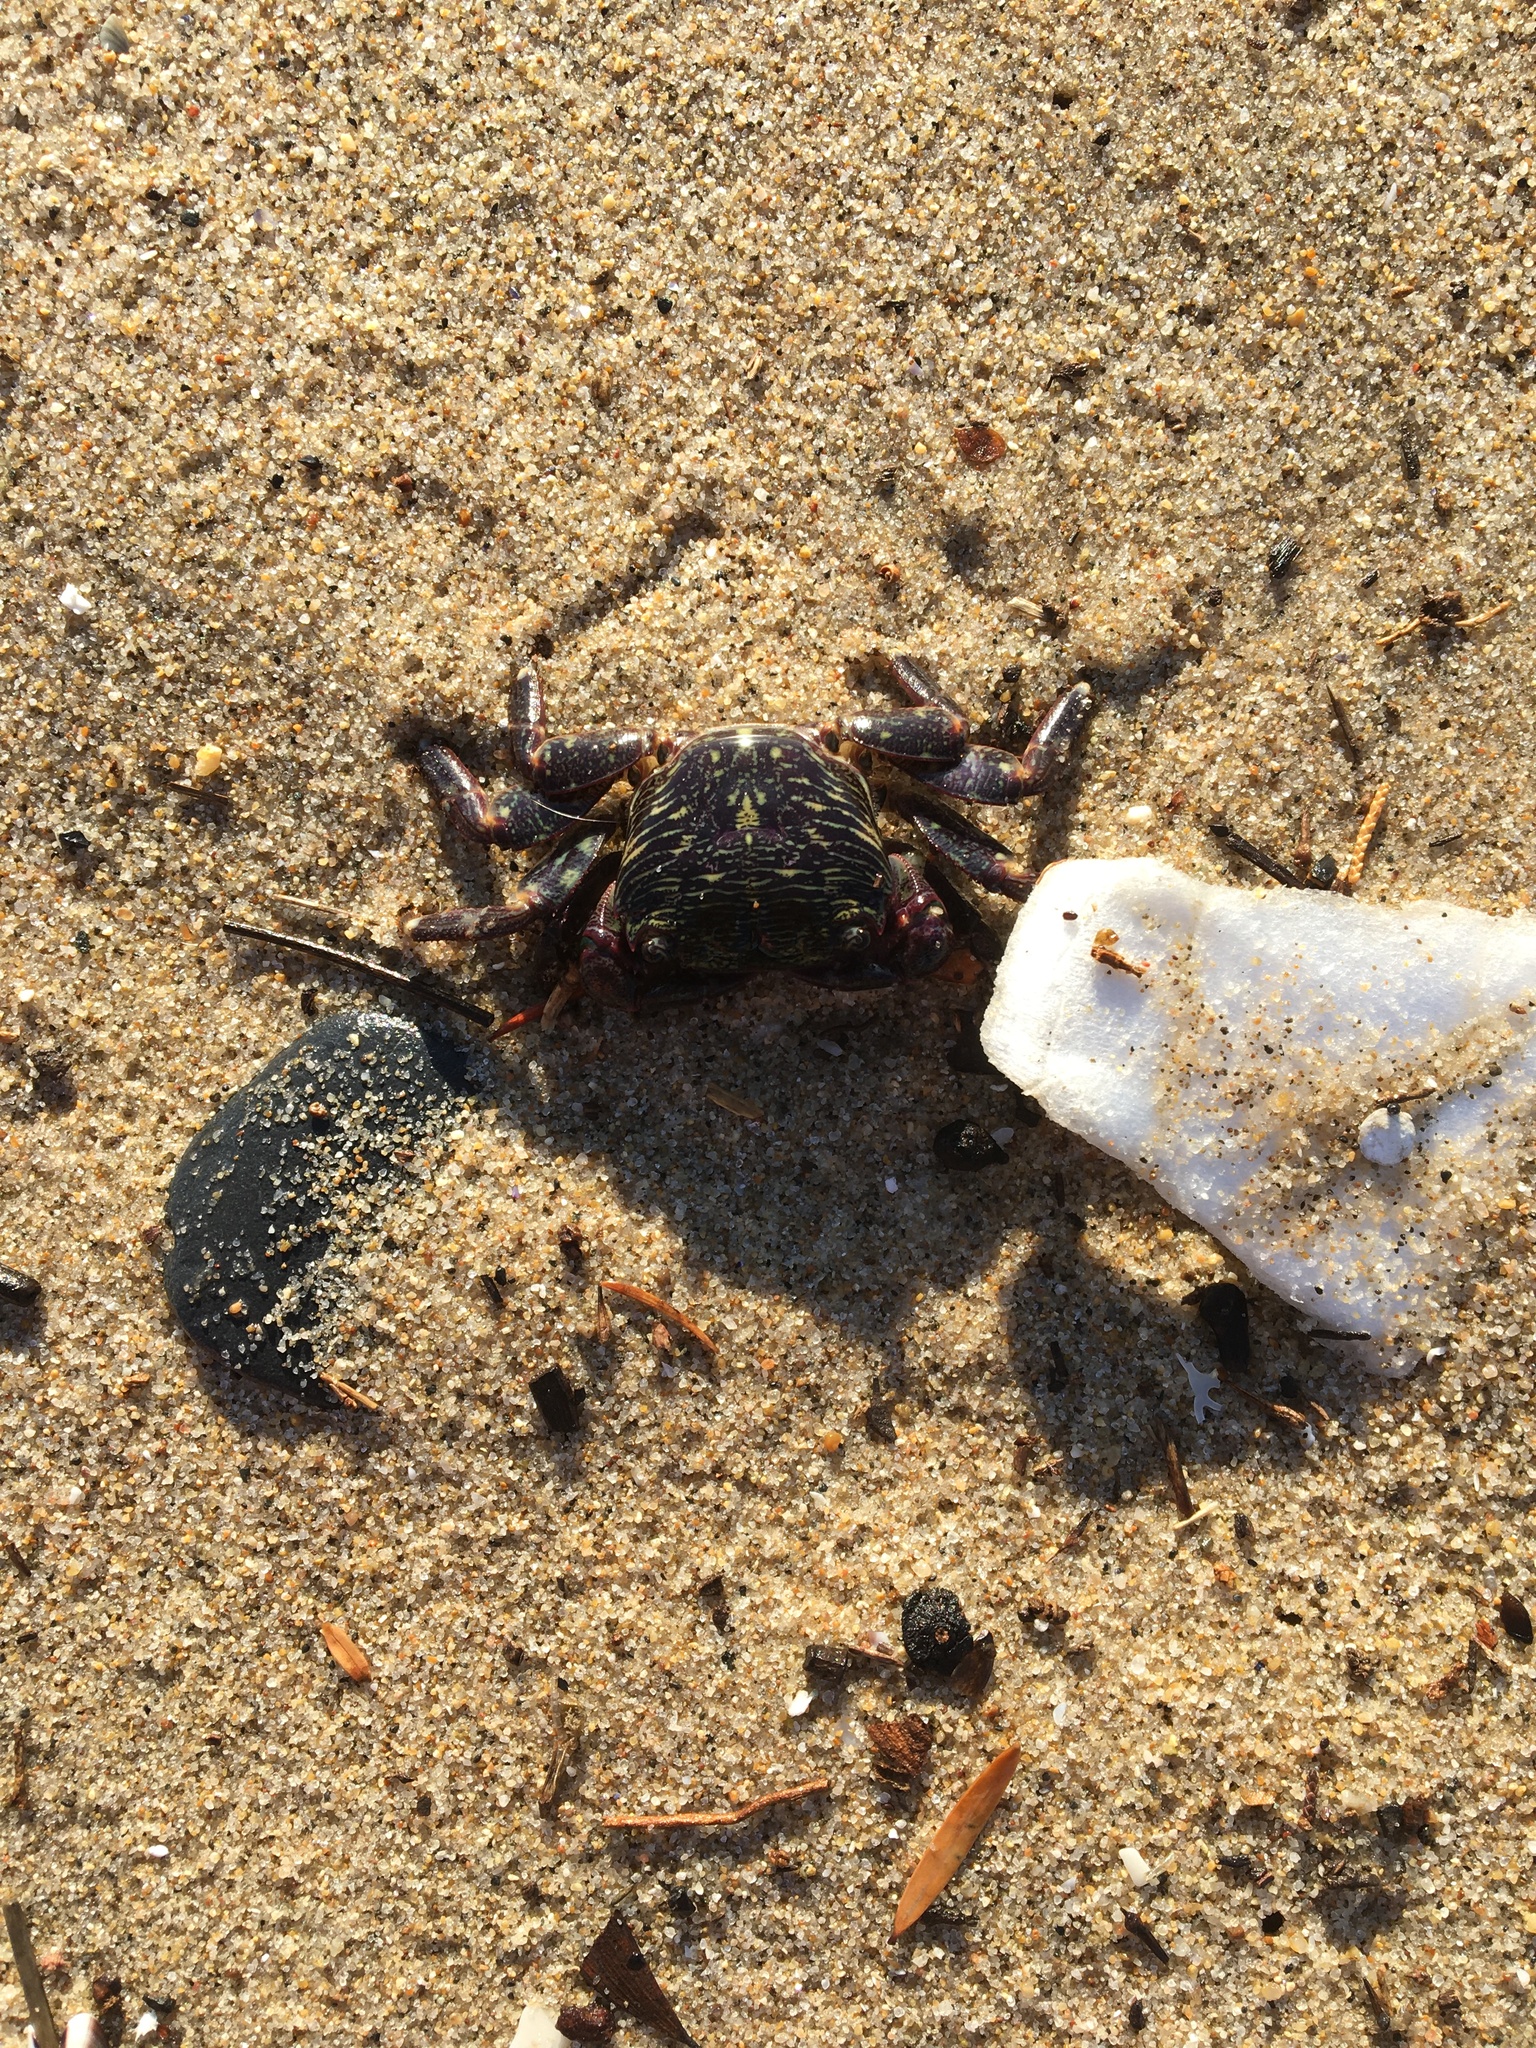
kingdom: Animalia
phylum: Arthropoda
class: Malacostraca
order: Decapoda
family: Grapsidae
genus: Pachygrapsus
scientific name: Pachygrapsus crassipes
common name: Striped shore crab
